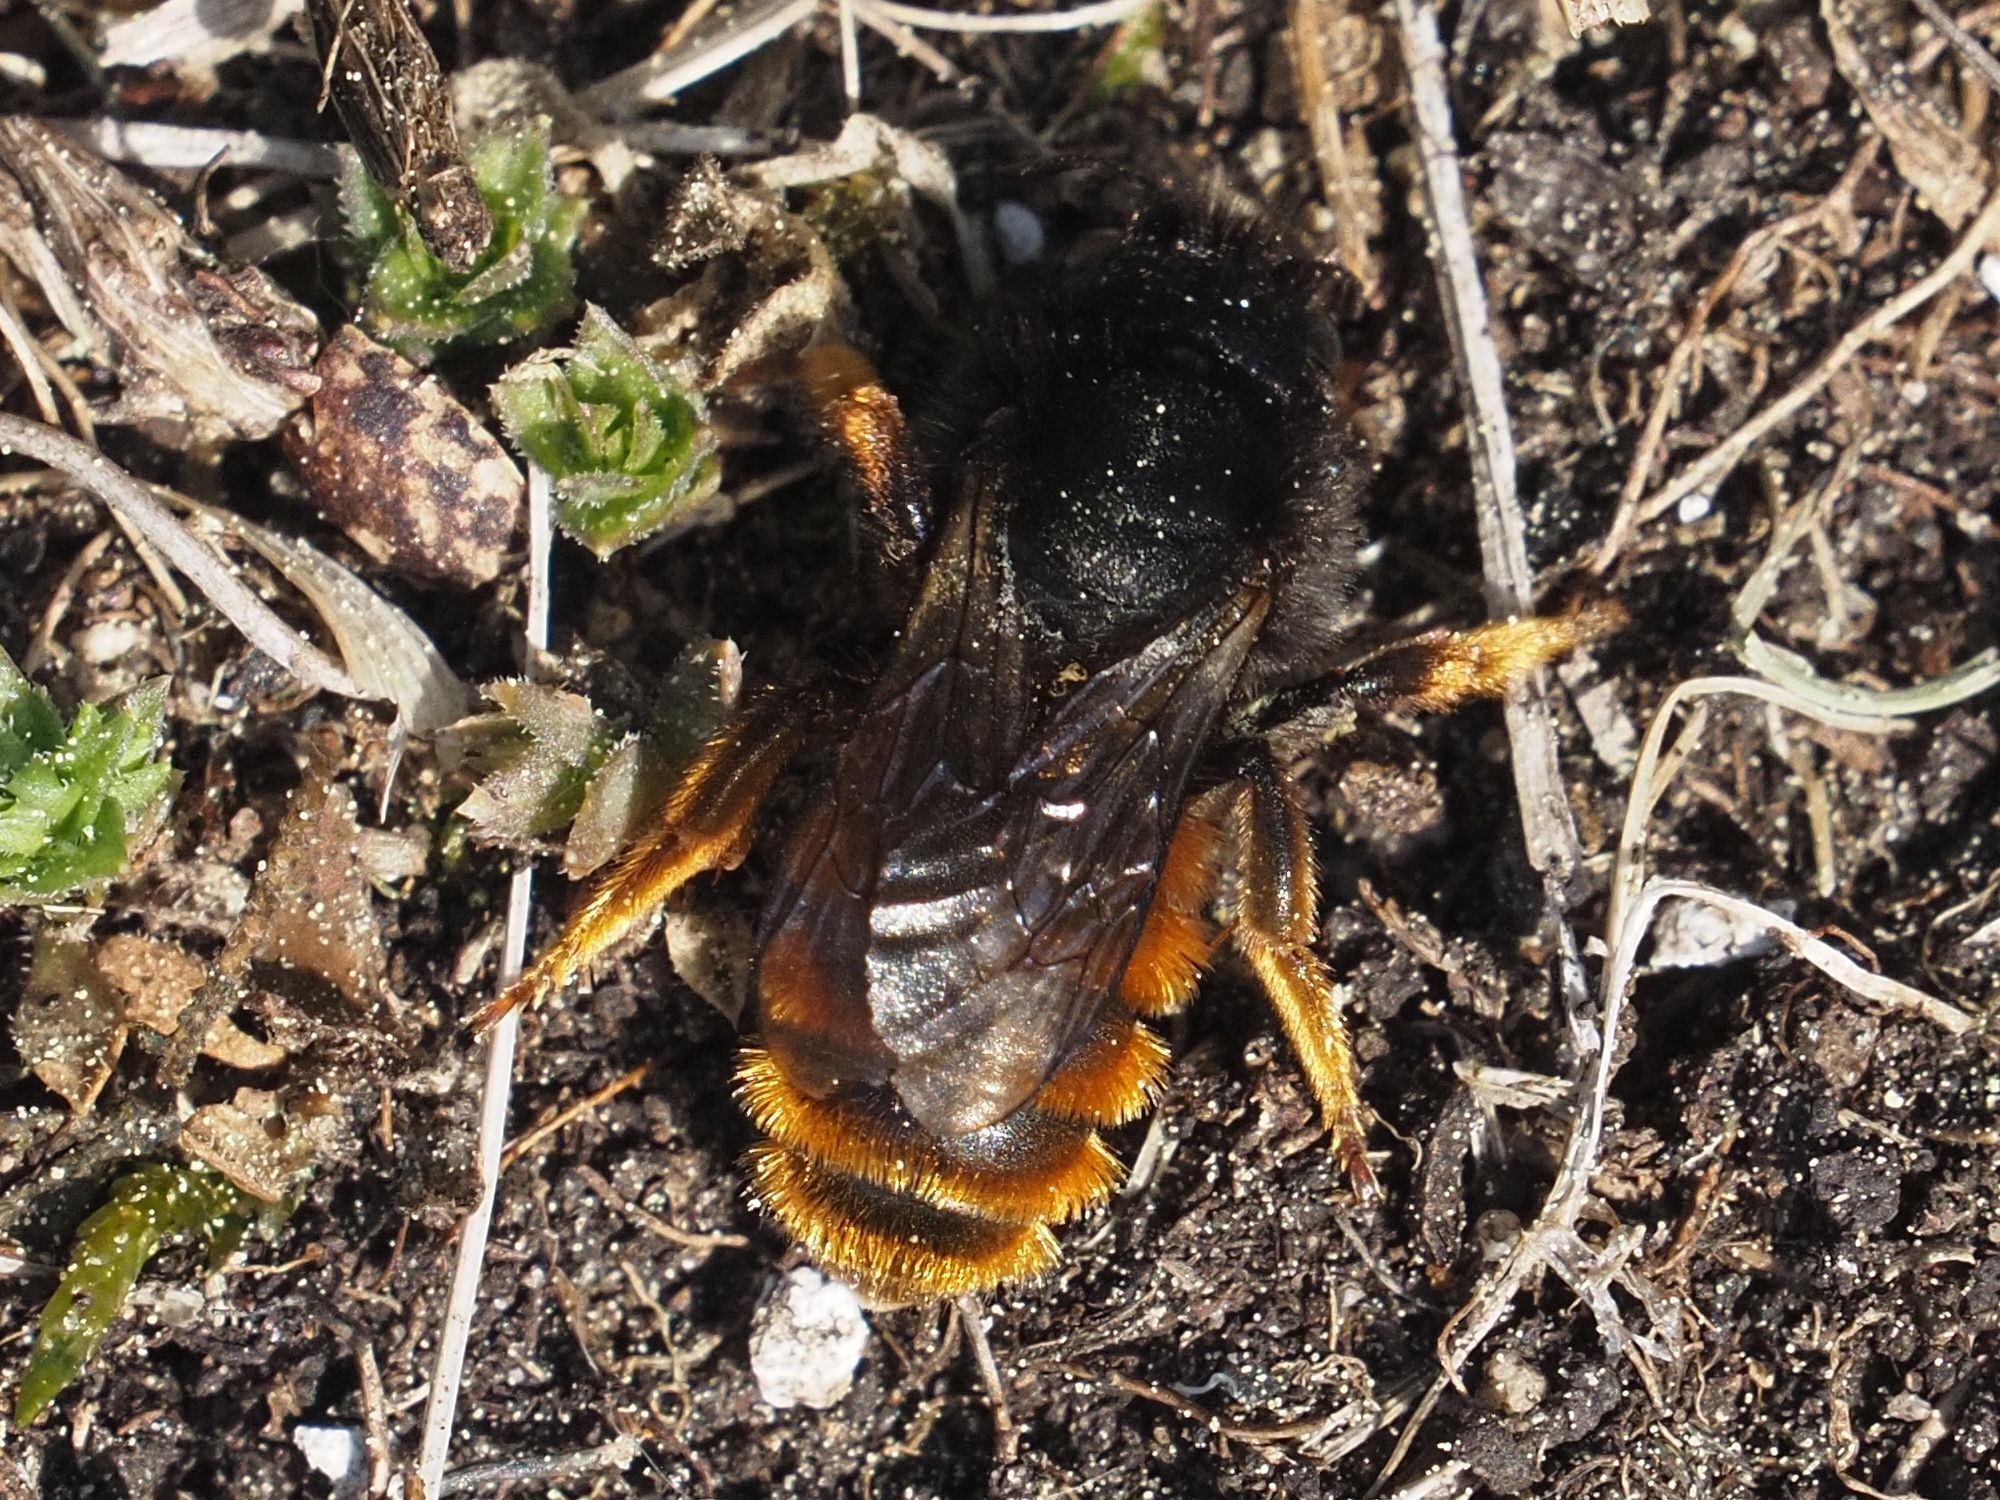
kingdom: Animalia
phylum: Arthropoda
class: Insecta
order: Hymenoptera
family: Megachilidae
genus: Osmia
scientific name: Osmia bicolor
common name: Red-tailed mason bee
